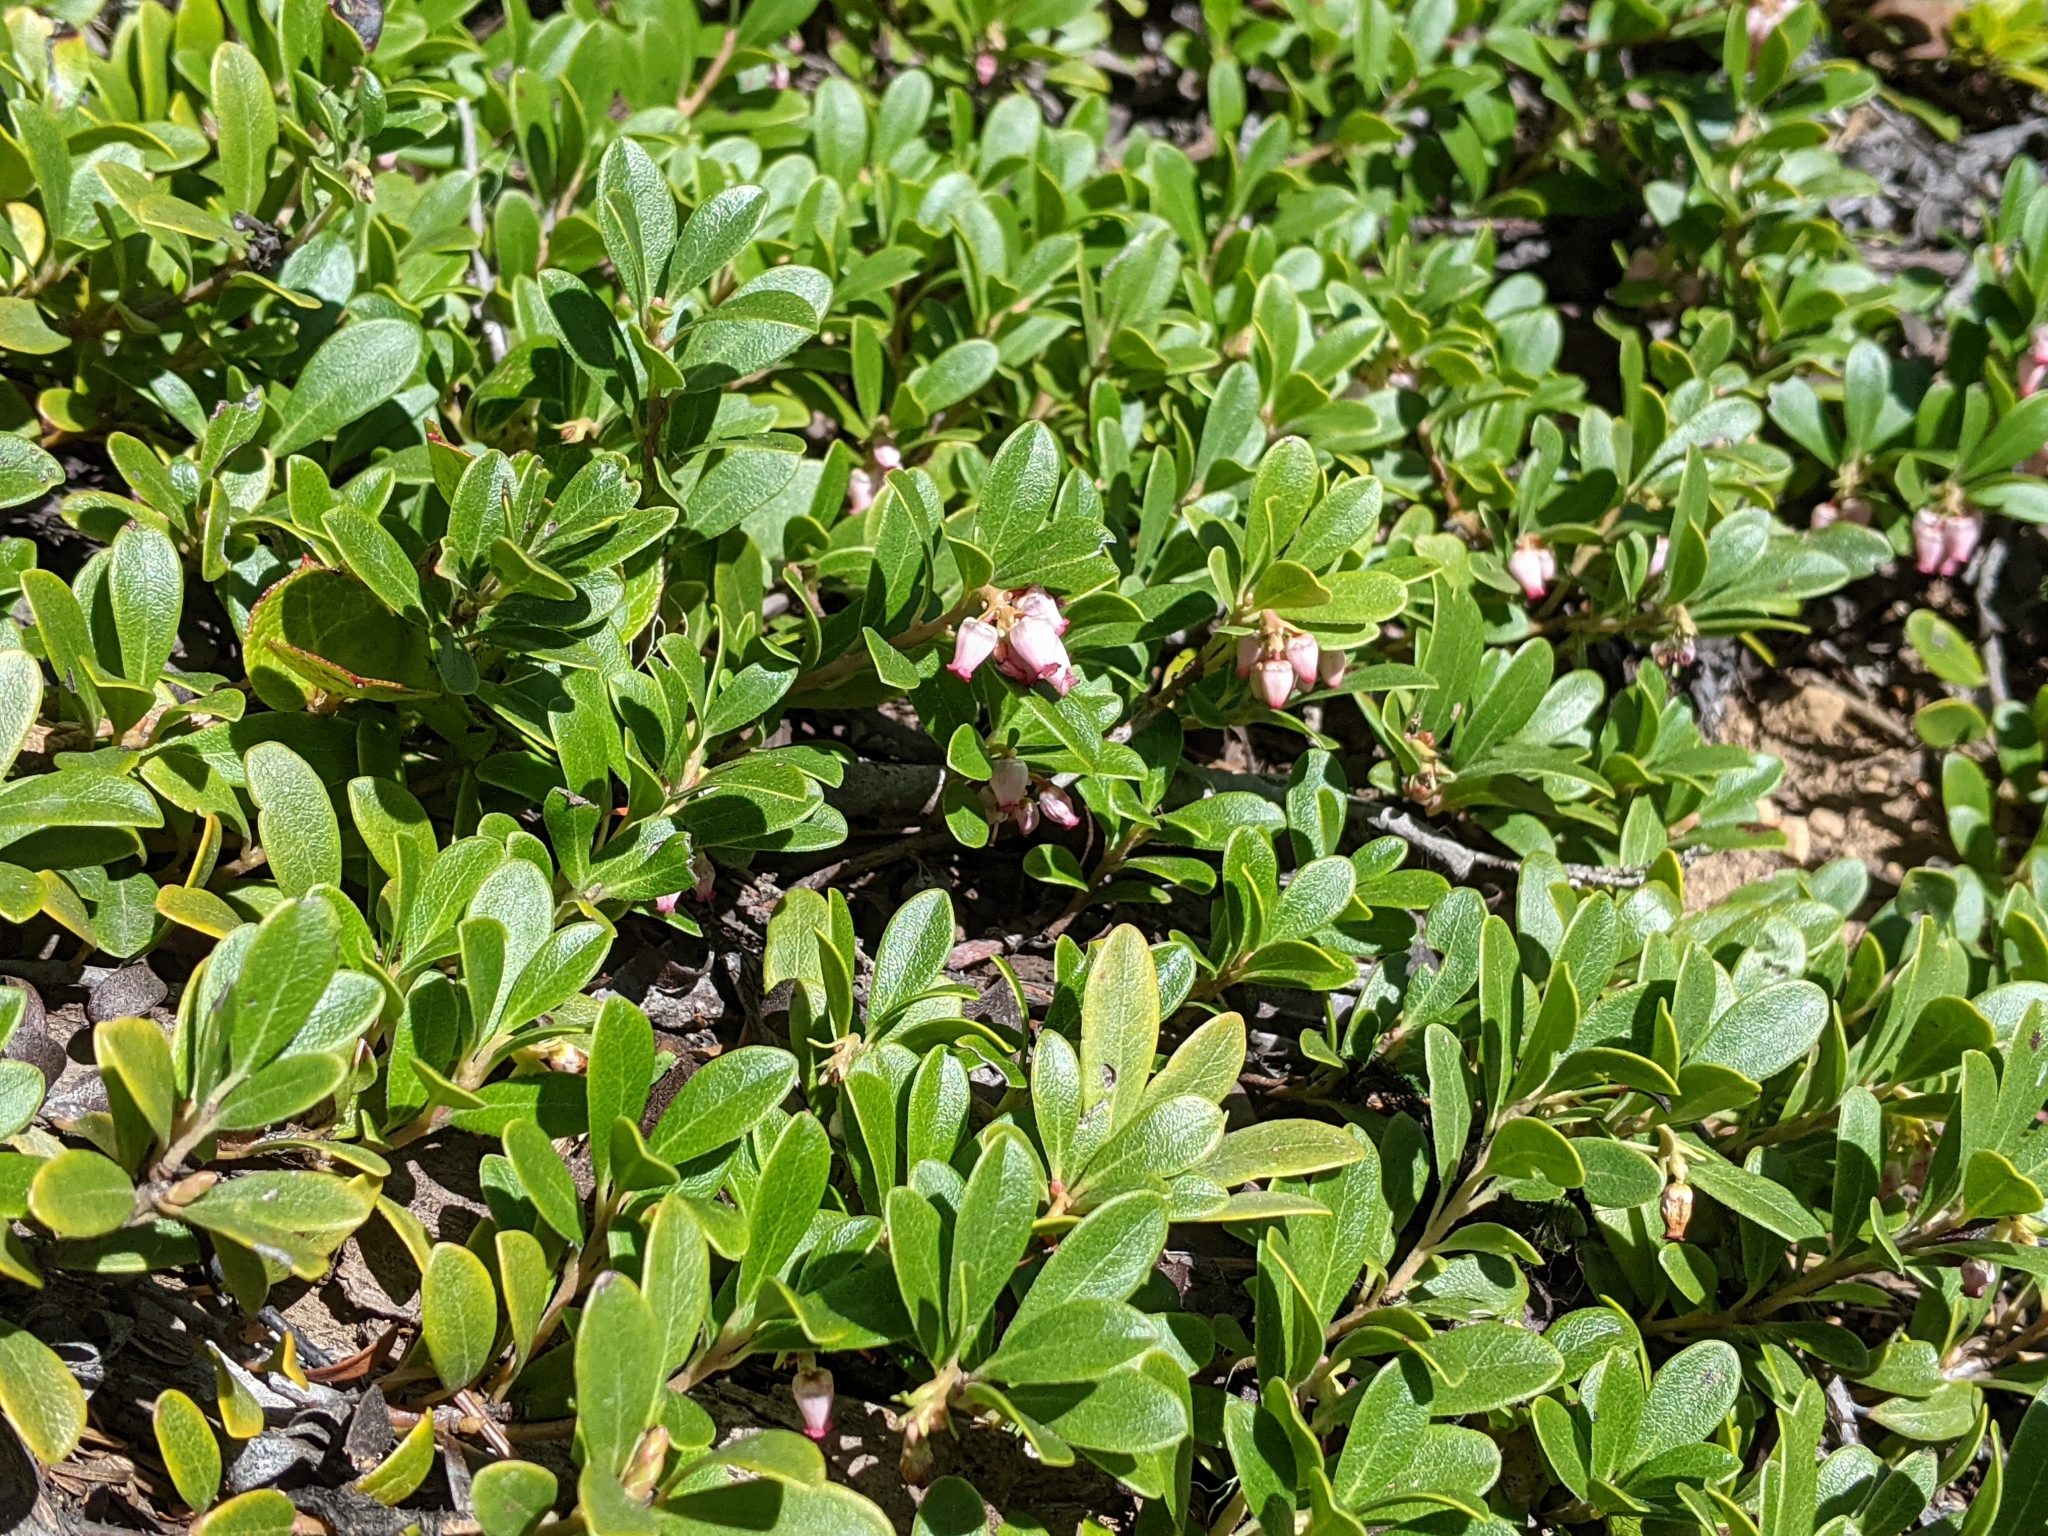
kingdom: Plantae
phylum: Tracheophyta
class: Magnoliopsida
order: Ericales
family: Ericaceae
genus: Arctostaphylos
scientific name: Arctostaphylos uva-ursi
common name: Bearberry
